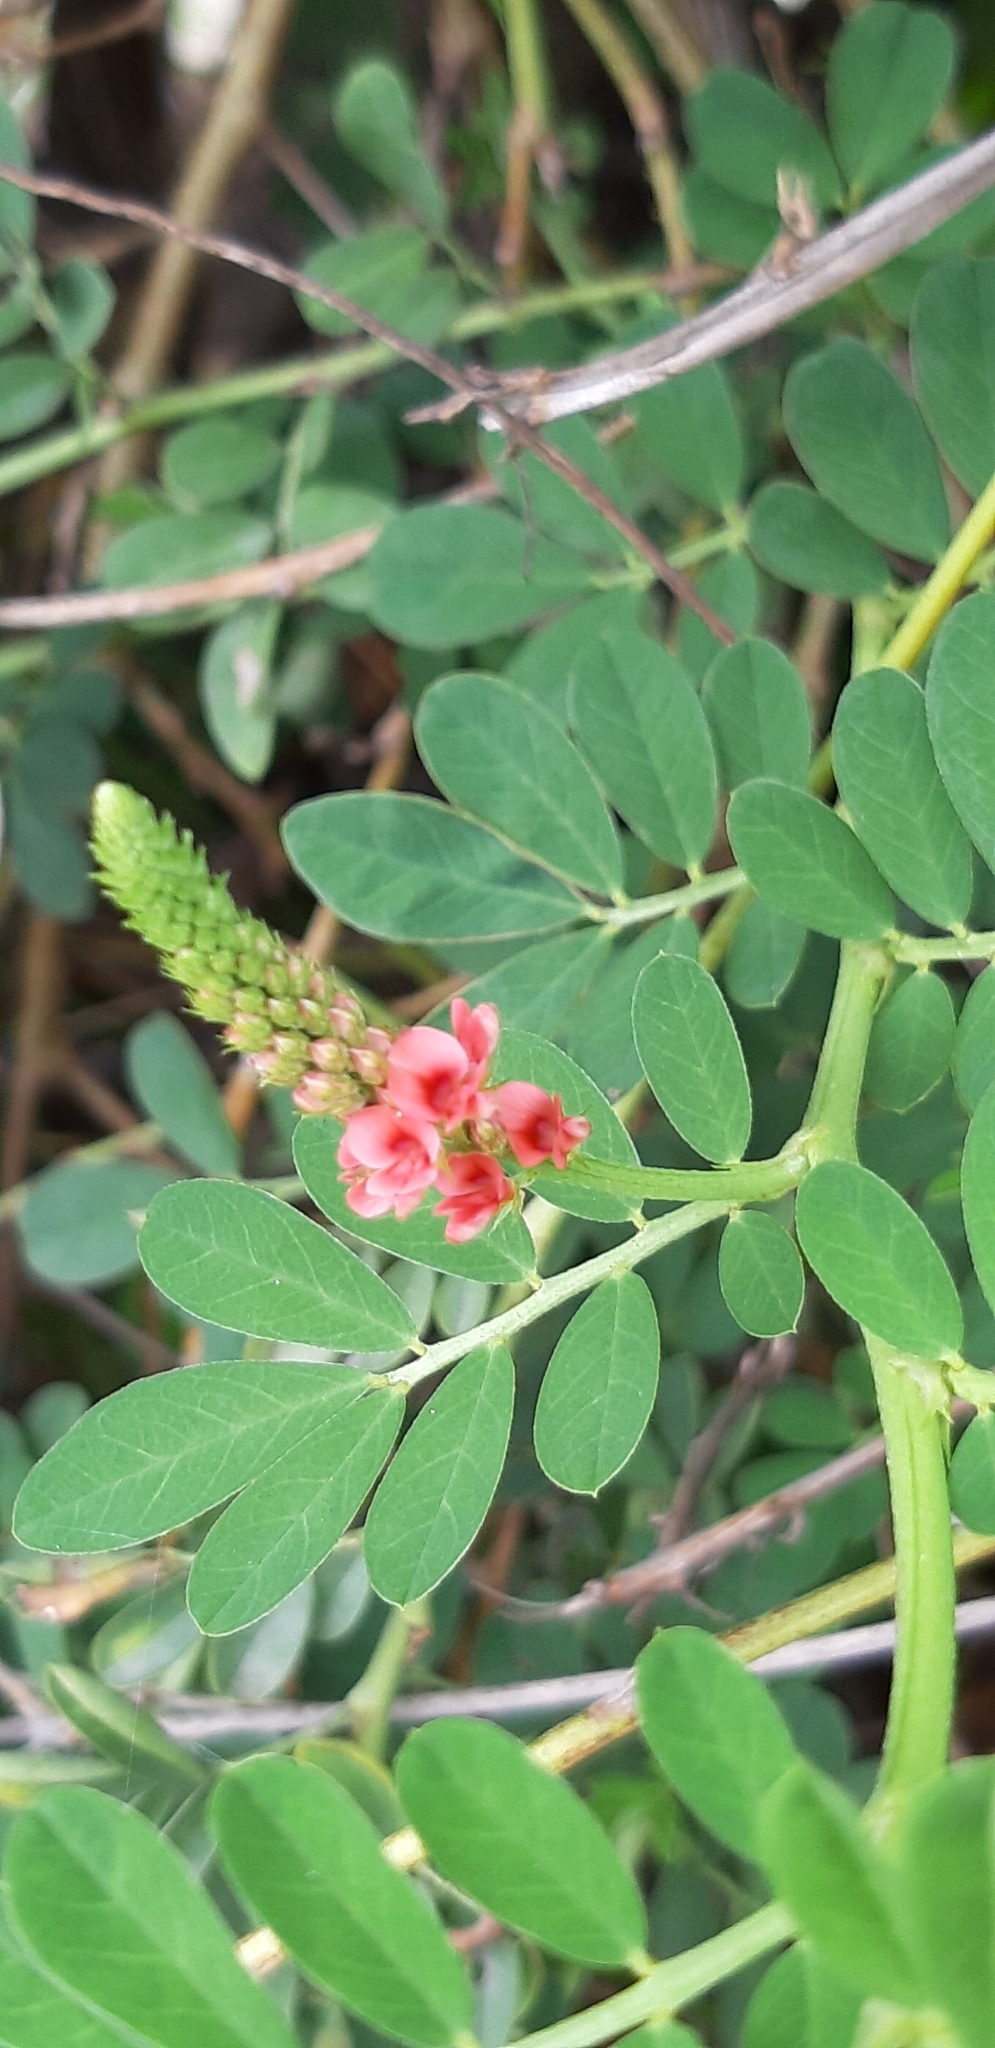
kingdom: Plantae
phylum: Tracheophyta
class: Magnoliopsida
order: Fabales
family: Fabaceae
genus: Indigofera
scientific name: Indigofera spicata
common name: Creeping indigo
